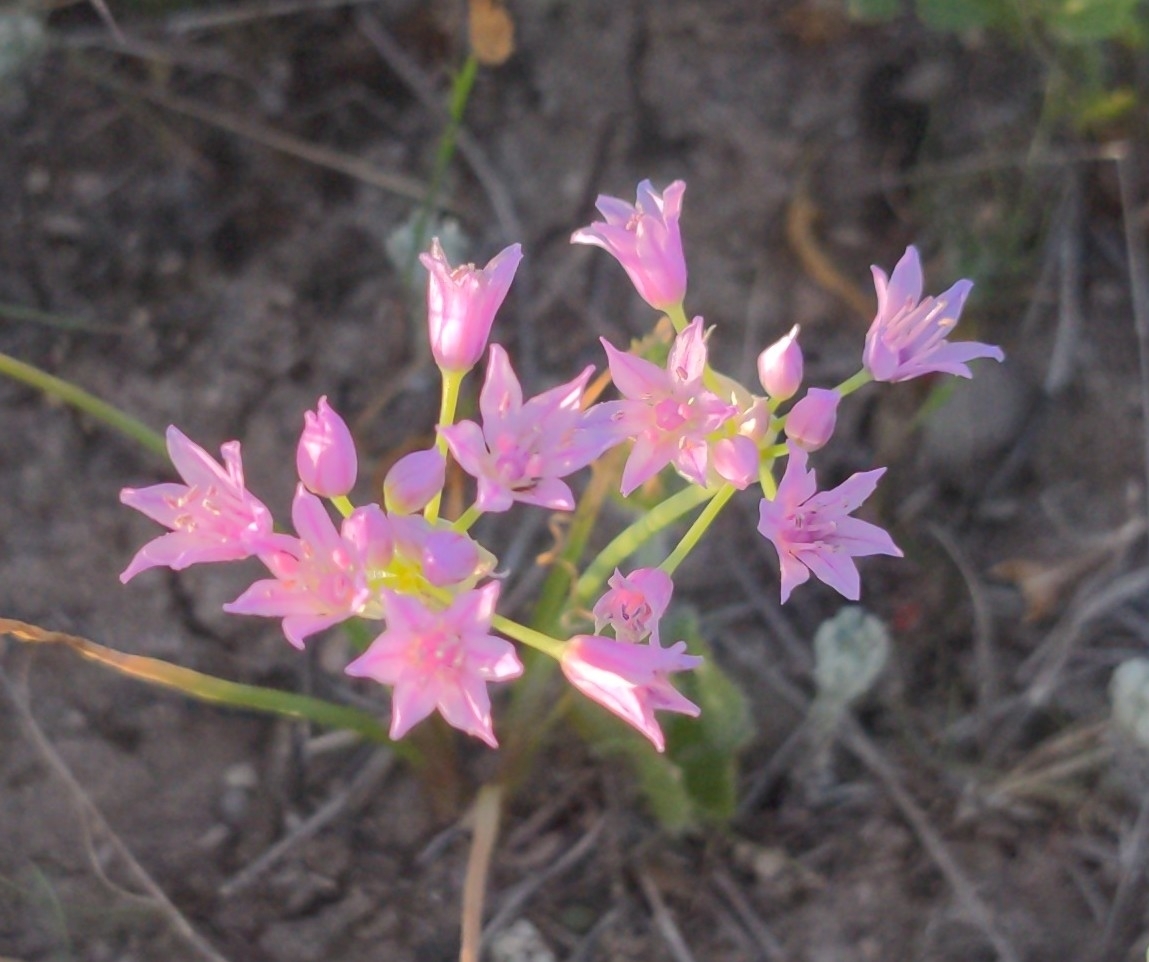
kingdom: Plantae
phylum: Tracheophyta
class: Liliopsida
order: Asparagales
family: Amaryllidaceae
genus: Allium
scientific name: Allium drummondii
